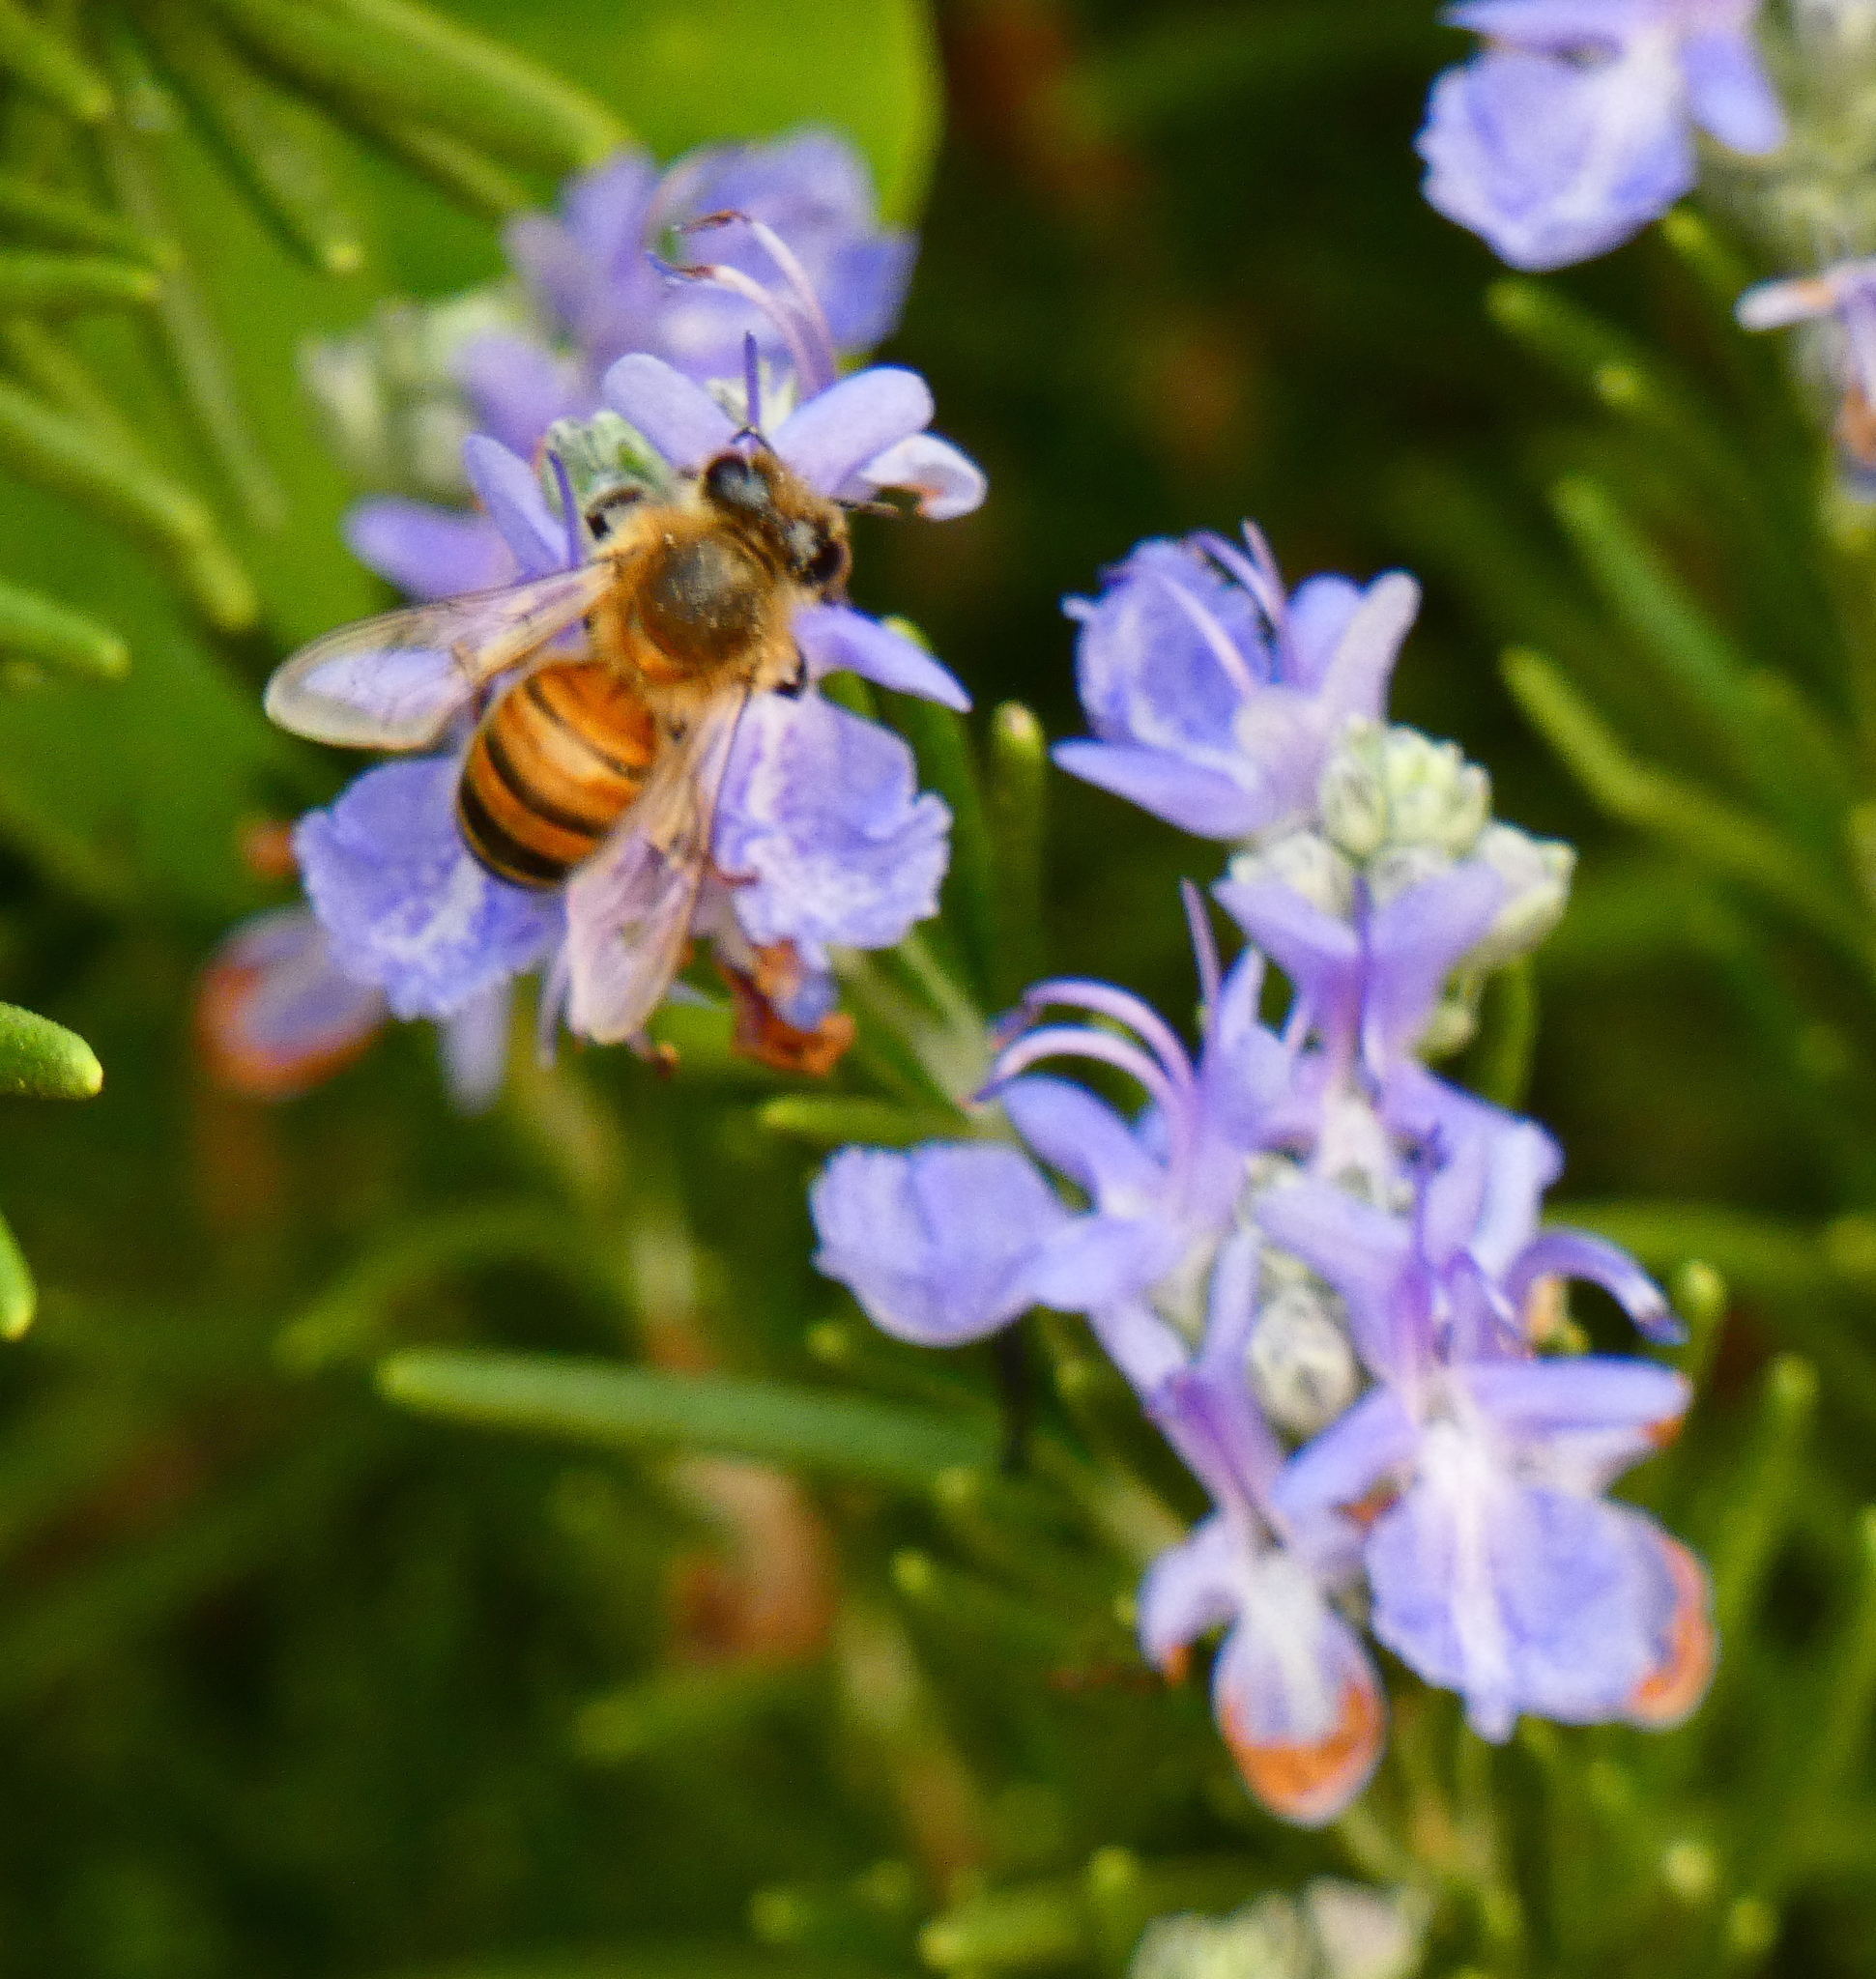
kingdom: Animalia
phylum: Arthropoda
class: Insecta
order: Hymenoptera
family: Apidae
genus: Apis
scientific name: Apis mellifera
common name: Honey bee
